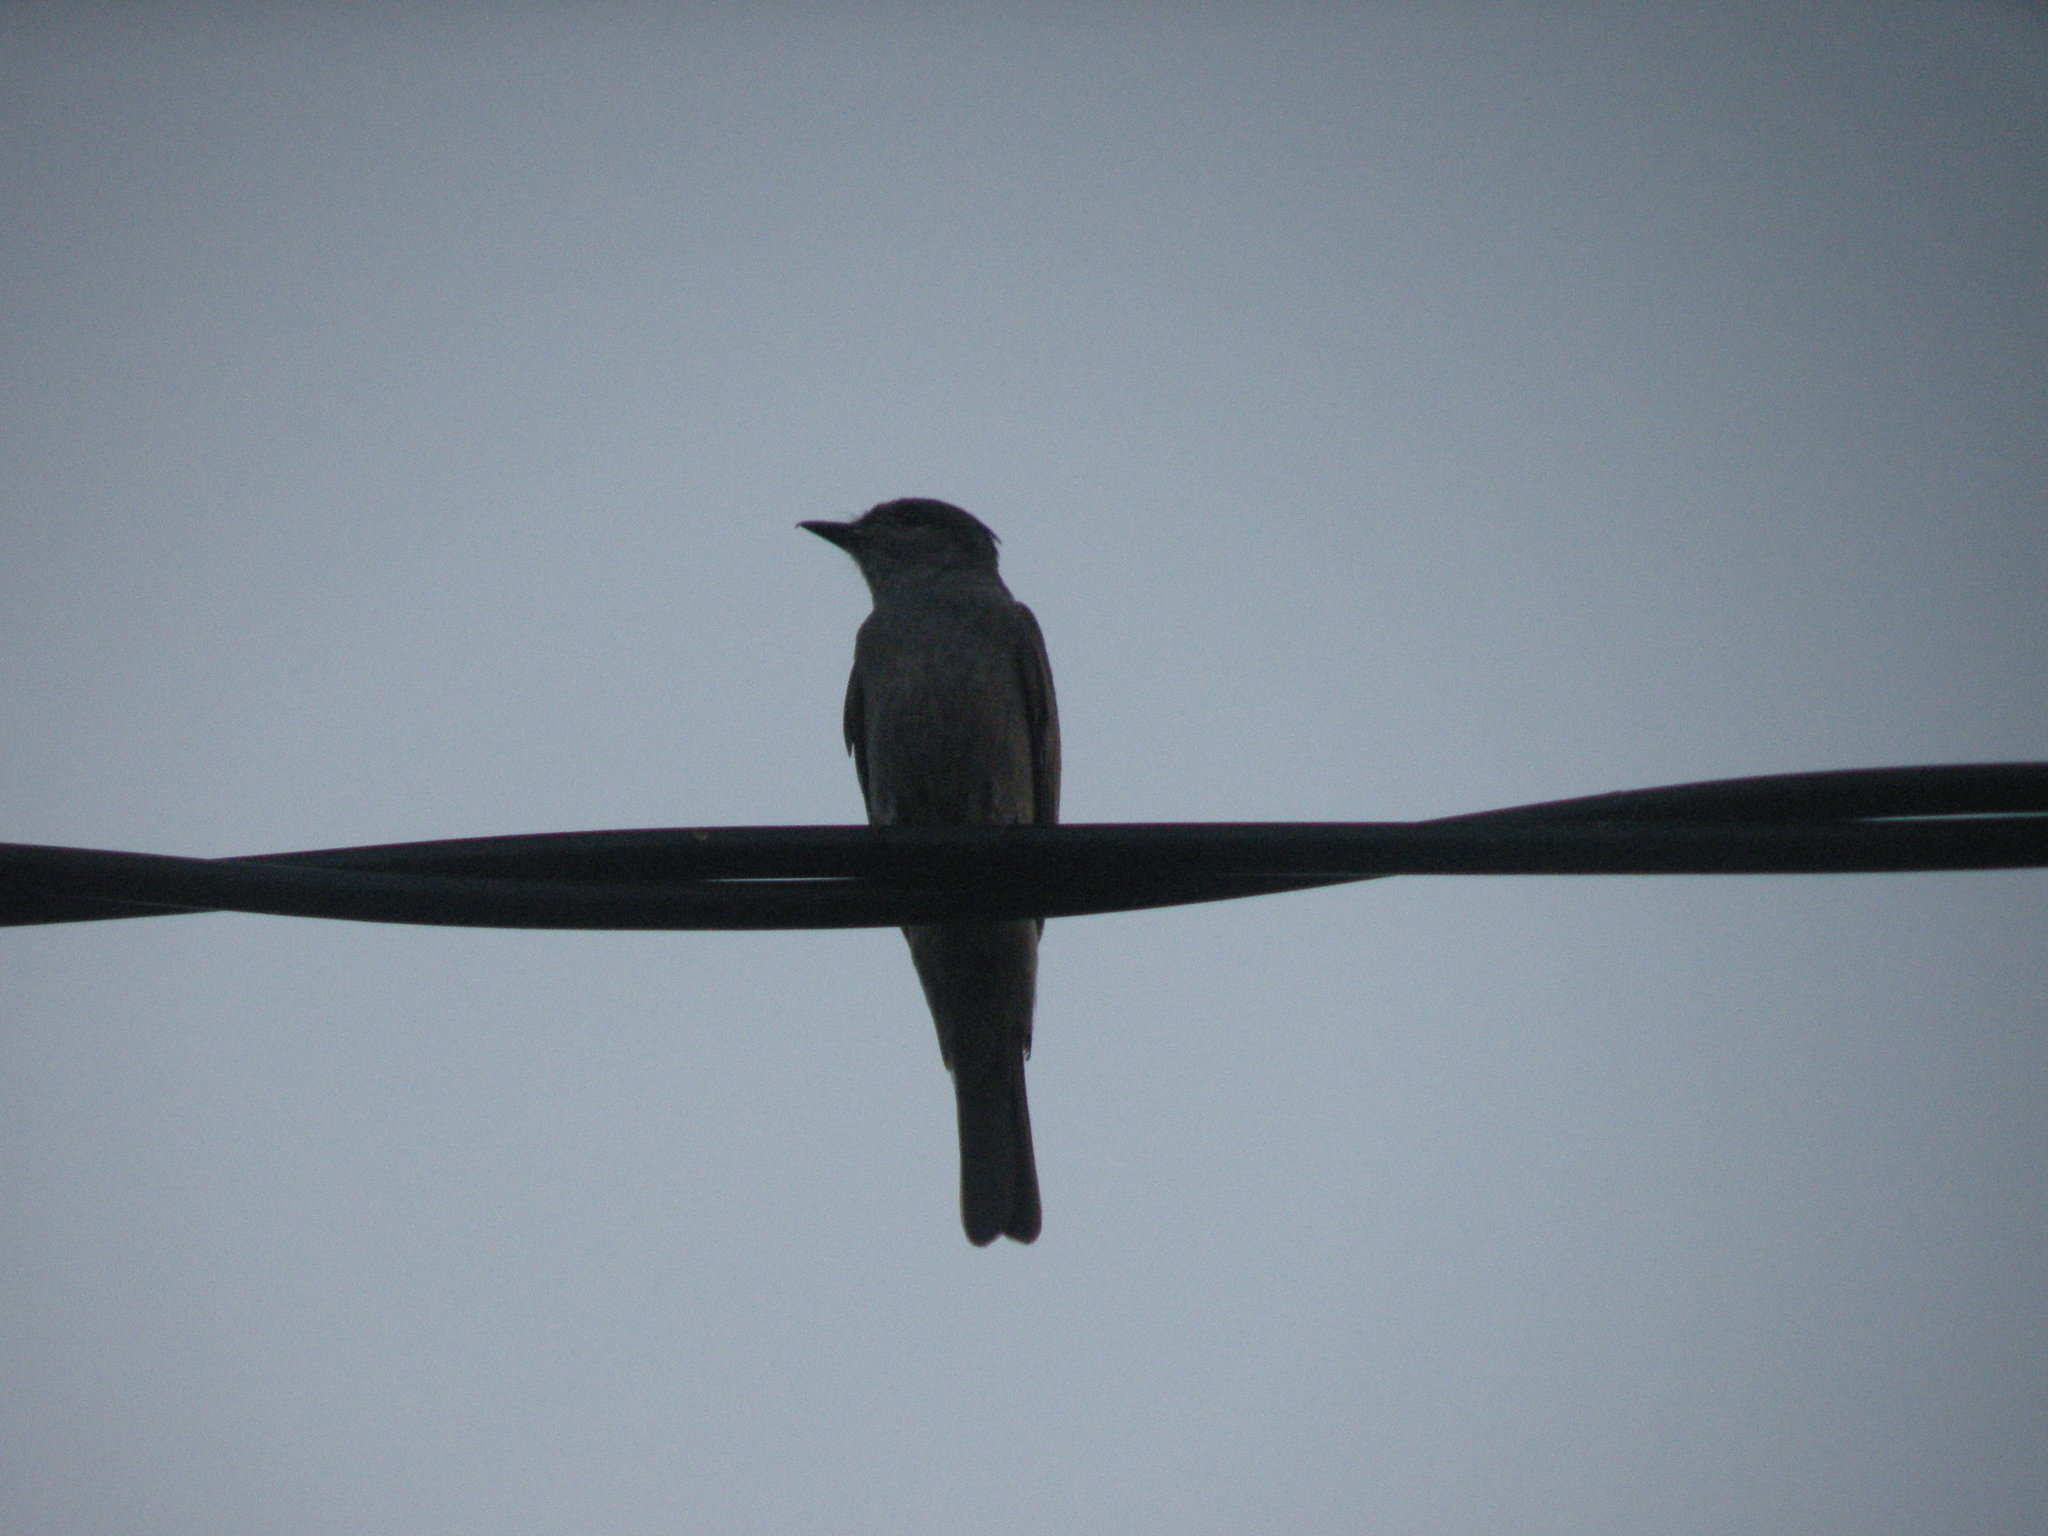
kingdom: Animalia
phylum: Chordata
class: Aves
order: Passeriformes
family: Tyrannidae
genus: Empidonomus
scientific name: Empidonomus aurantioatrocristatus
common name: Crowned slaty flycatcher
